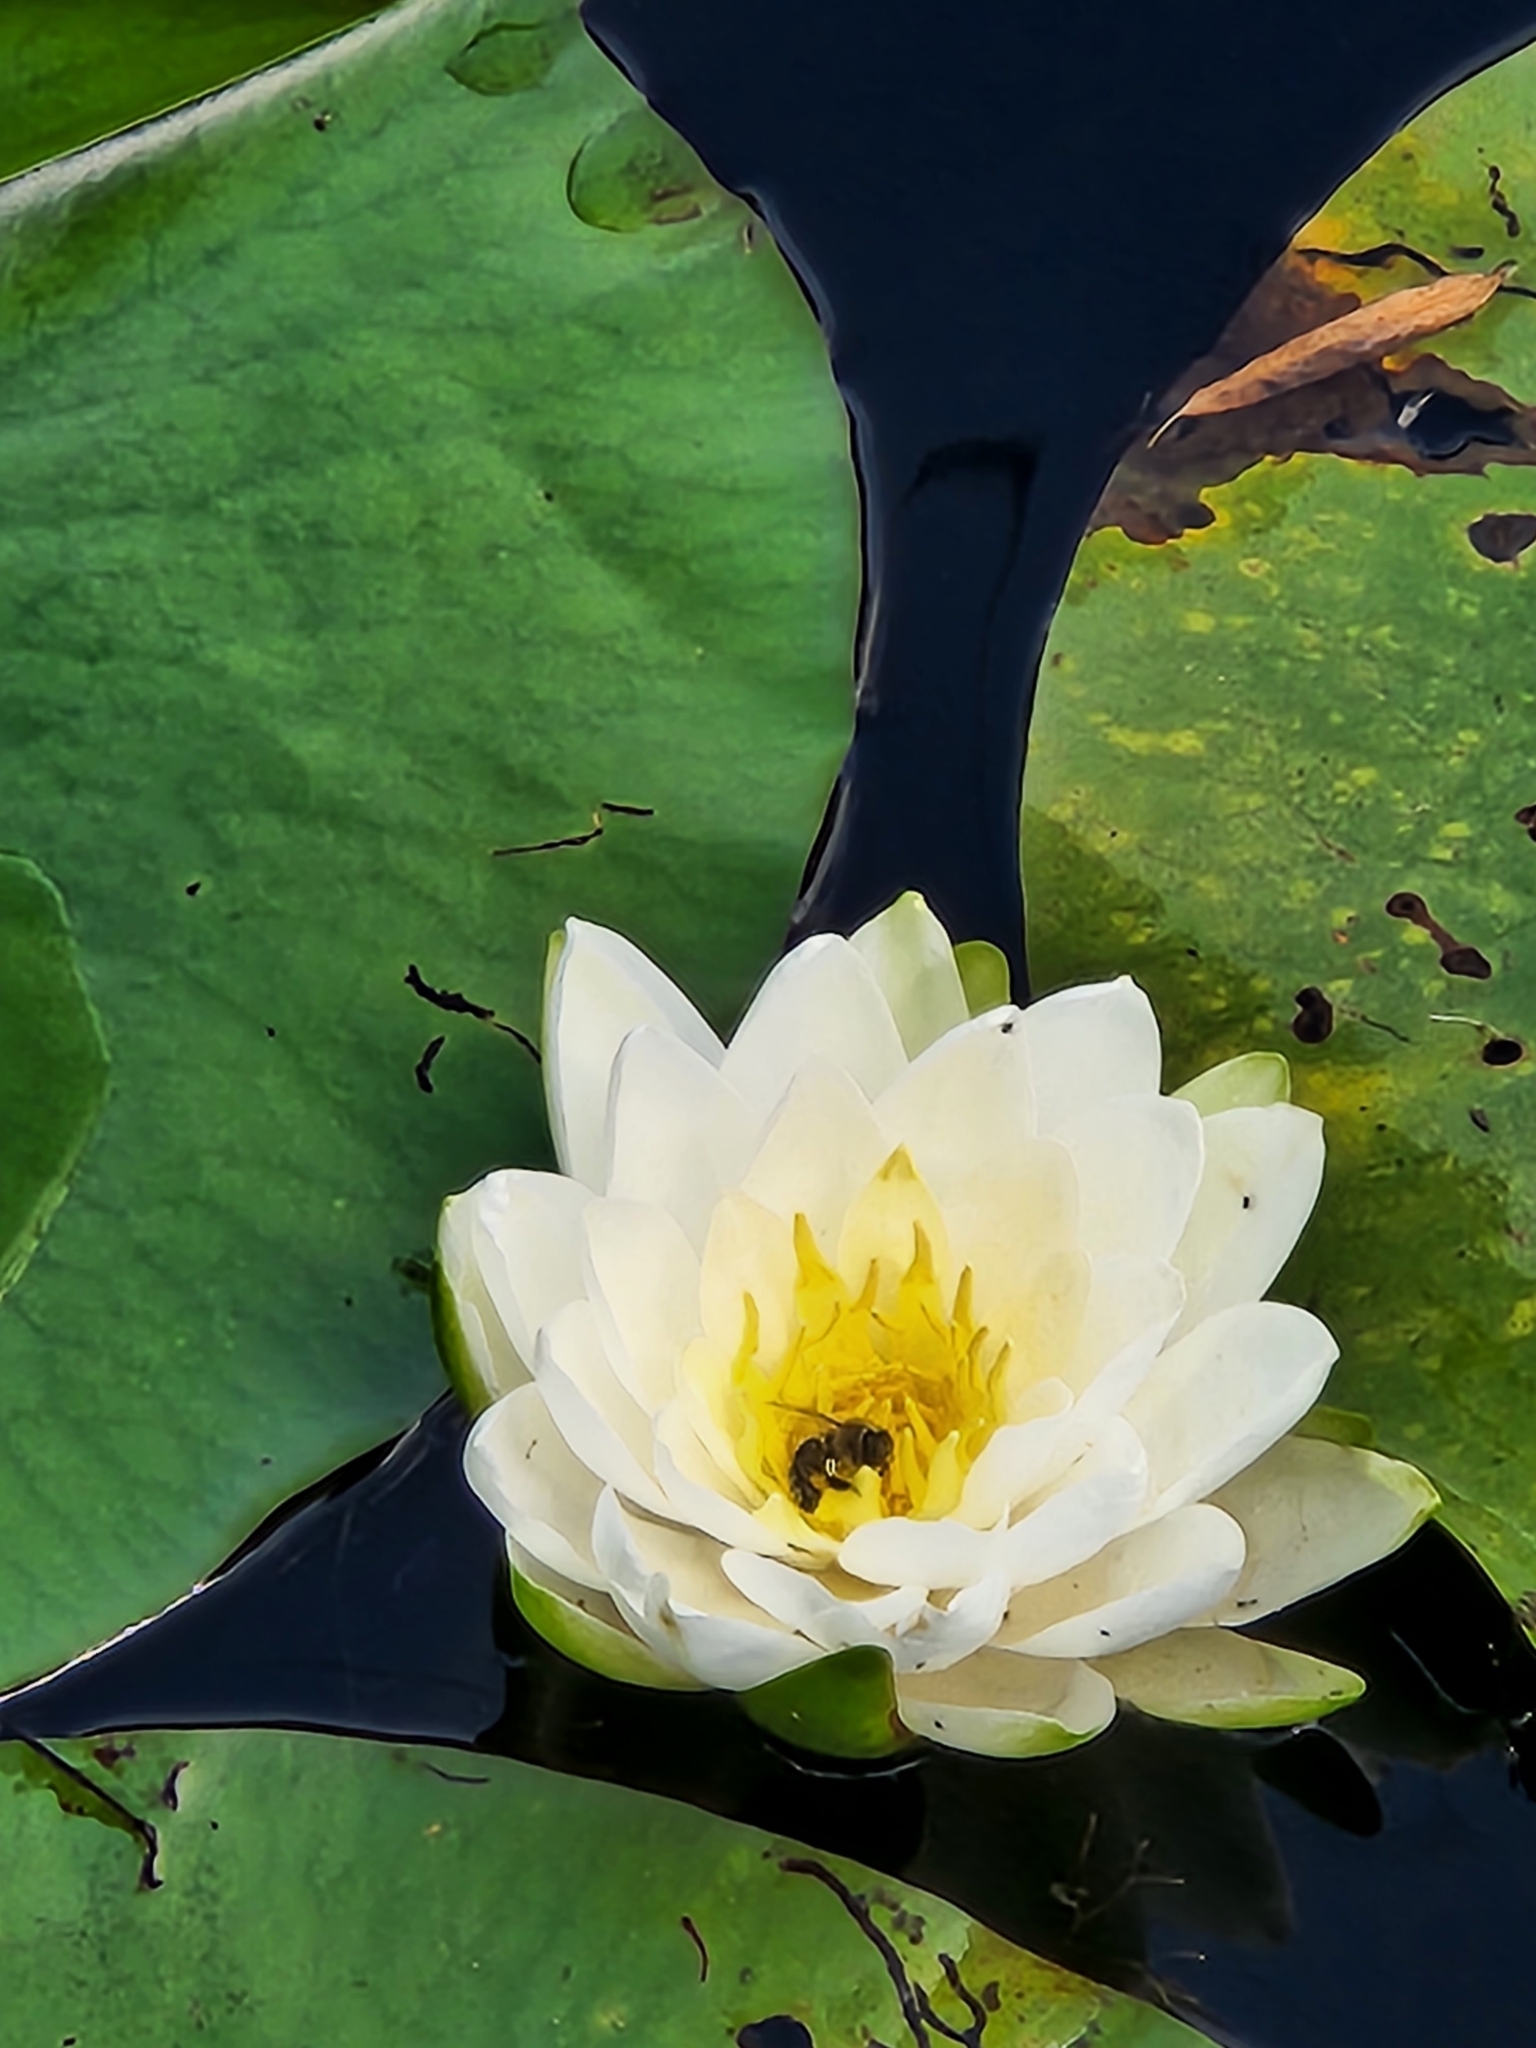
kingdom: Animalia
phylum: Arthropoda
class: Insecta
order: Hymenoptera
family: Apidae
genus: Apis
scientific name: Apis mellifera
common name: Honey bee
